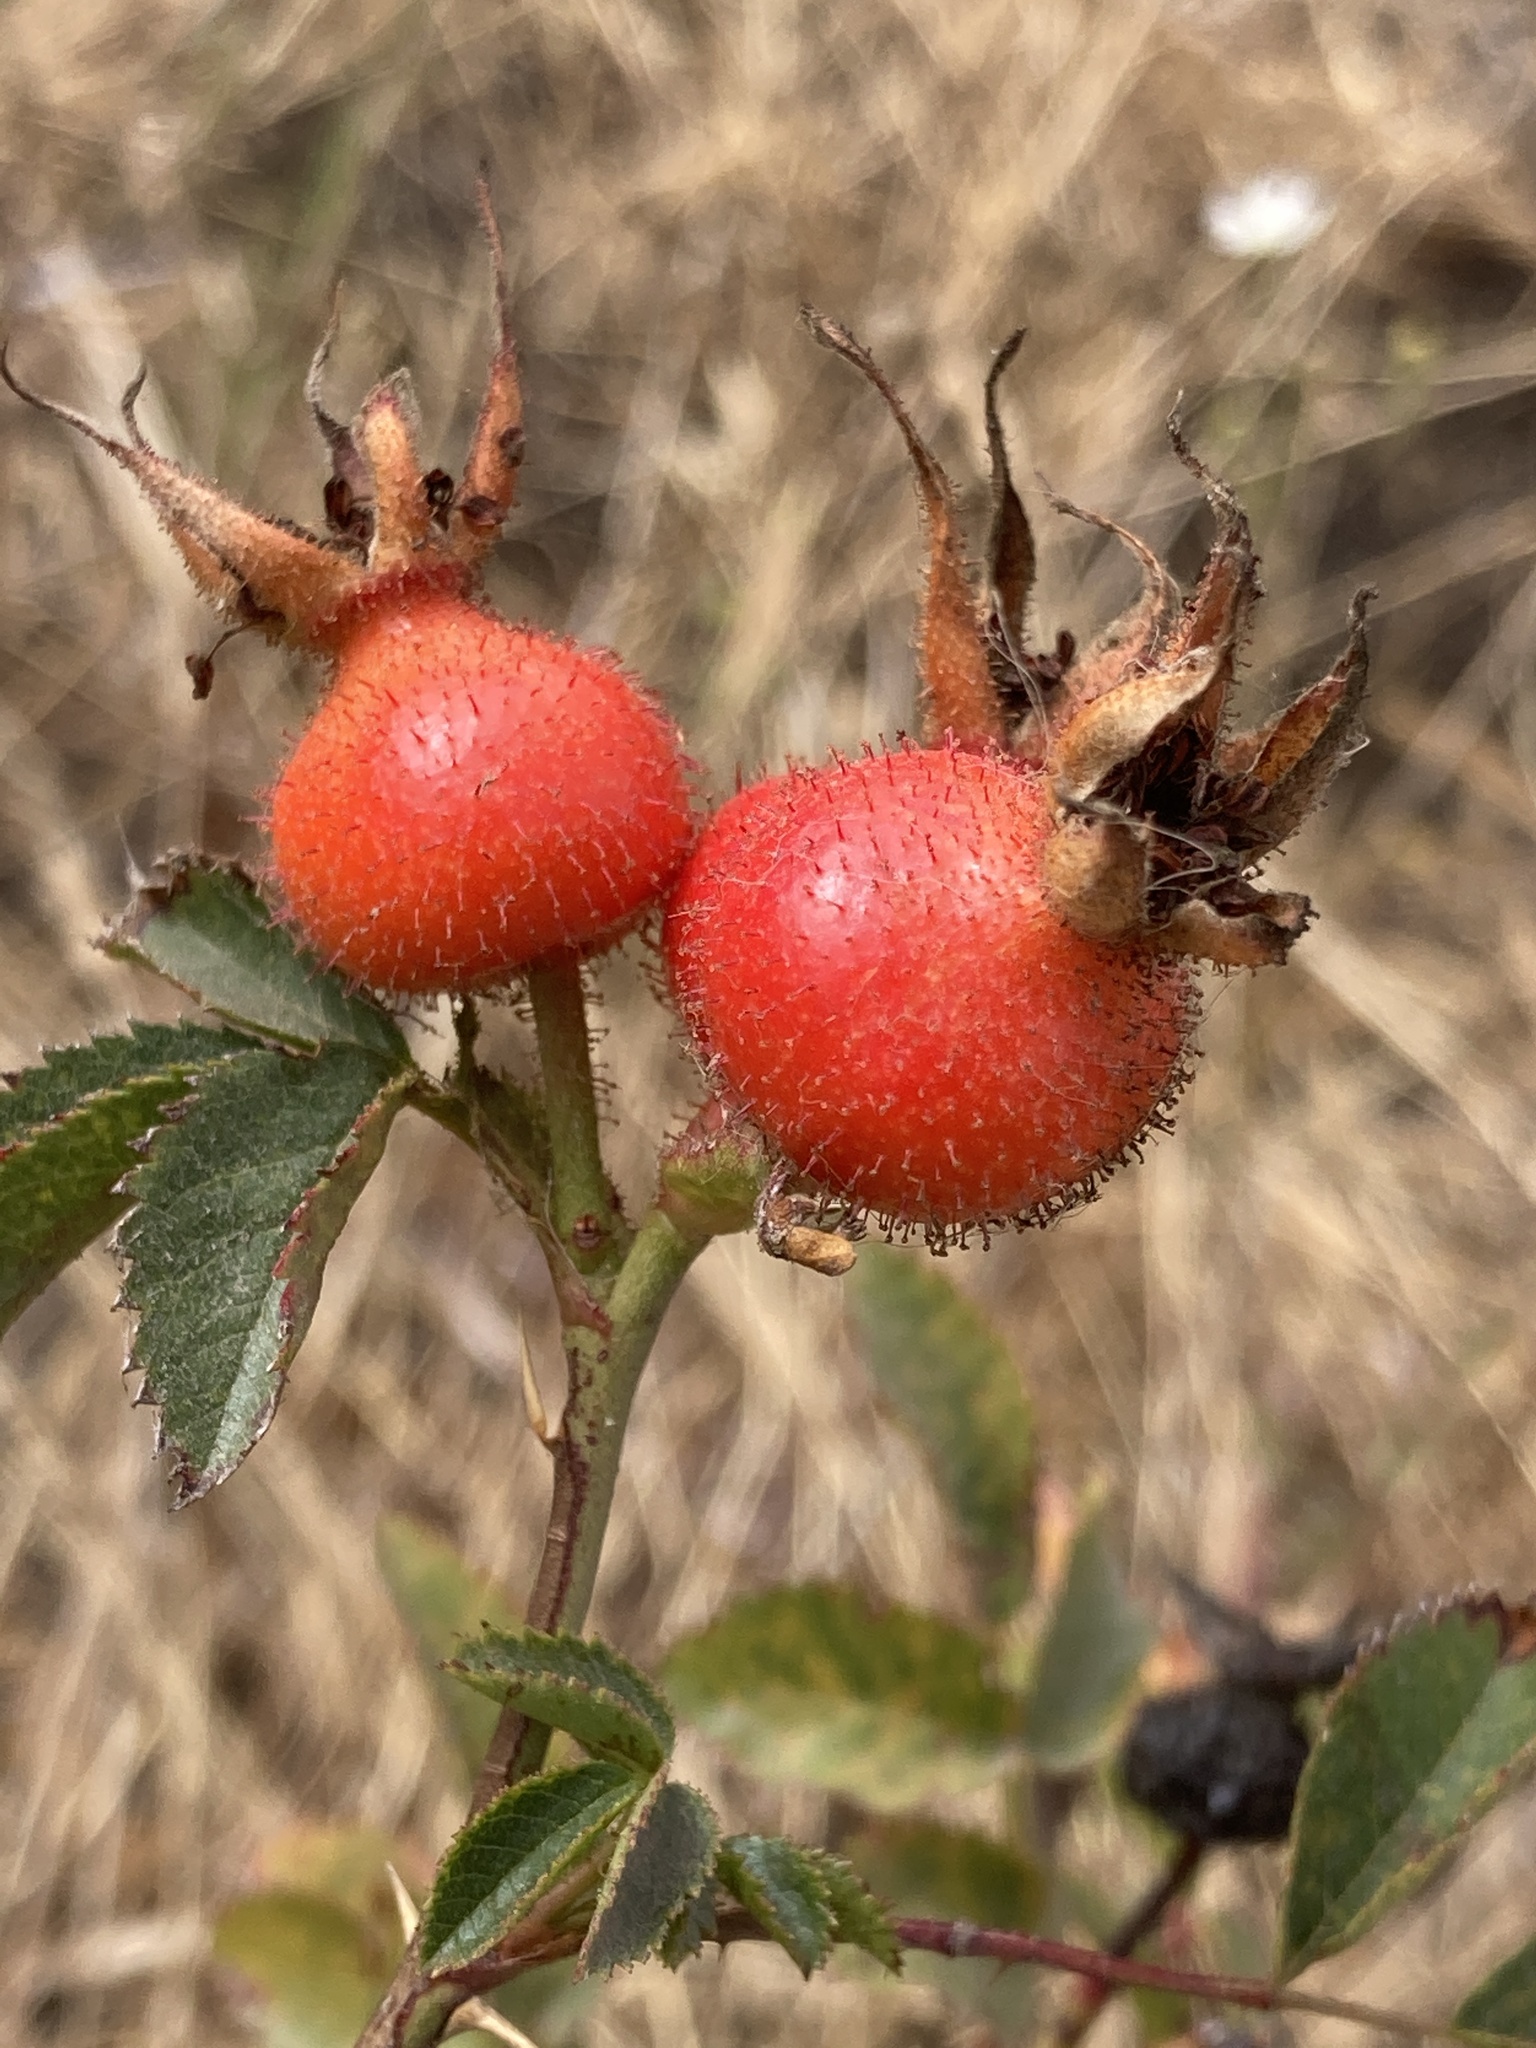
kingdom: Plantae
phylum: Tracheophyta
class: Magnoliopsida
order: Rosales
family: Rosaceae
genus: Rosa
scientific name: Rosa spithamea
